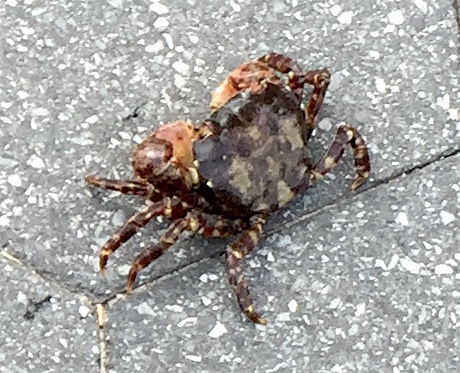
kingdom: Animalia
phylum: Arthropoda
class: Malacostraca
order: Decapoda
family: Varunidae
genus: Hemigrapsus
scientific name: Hemigrapsus sanguineus
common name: Asian shore crab
